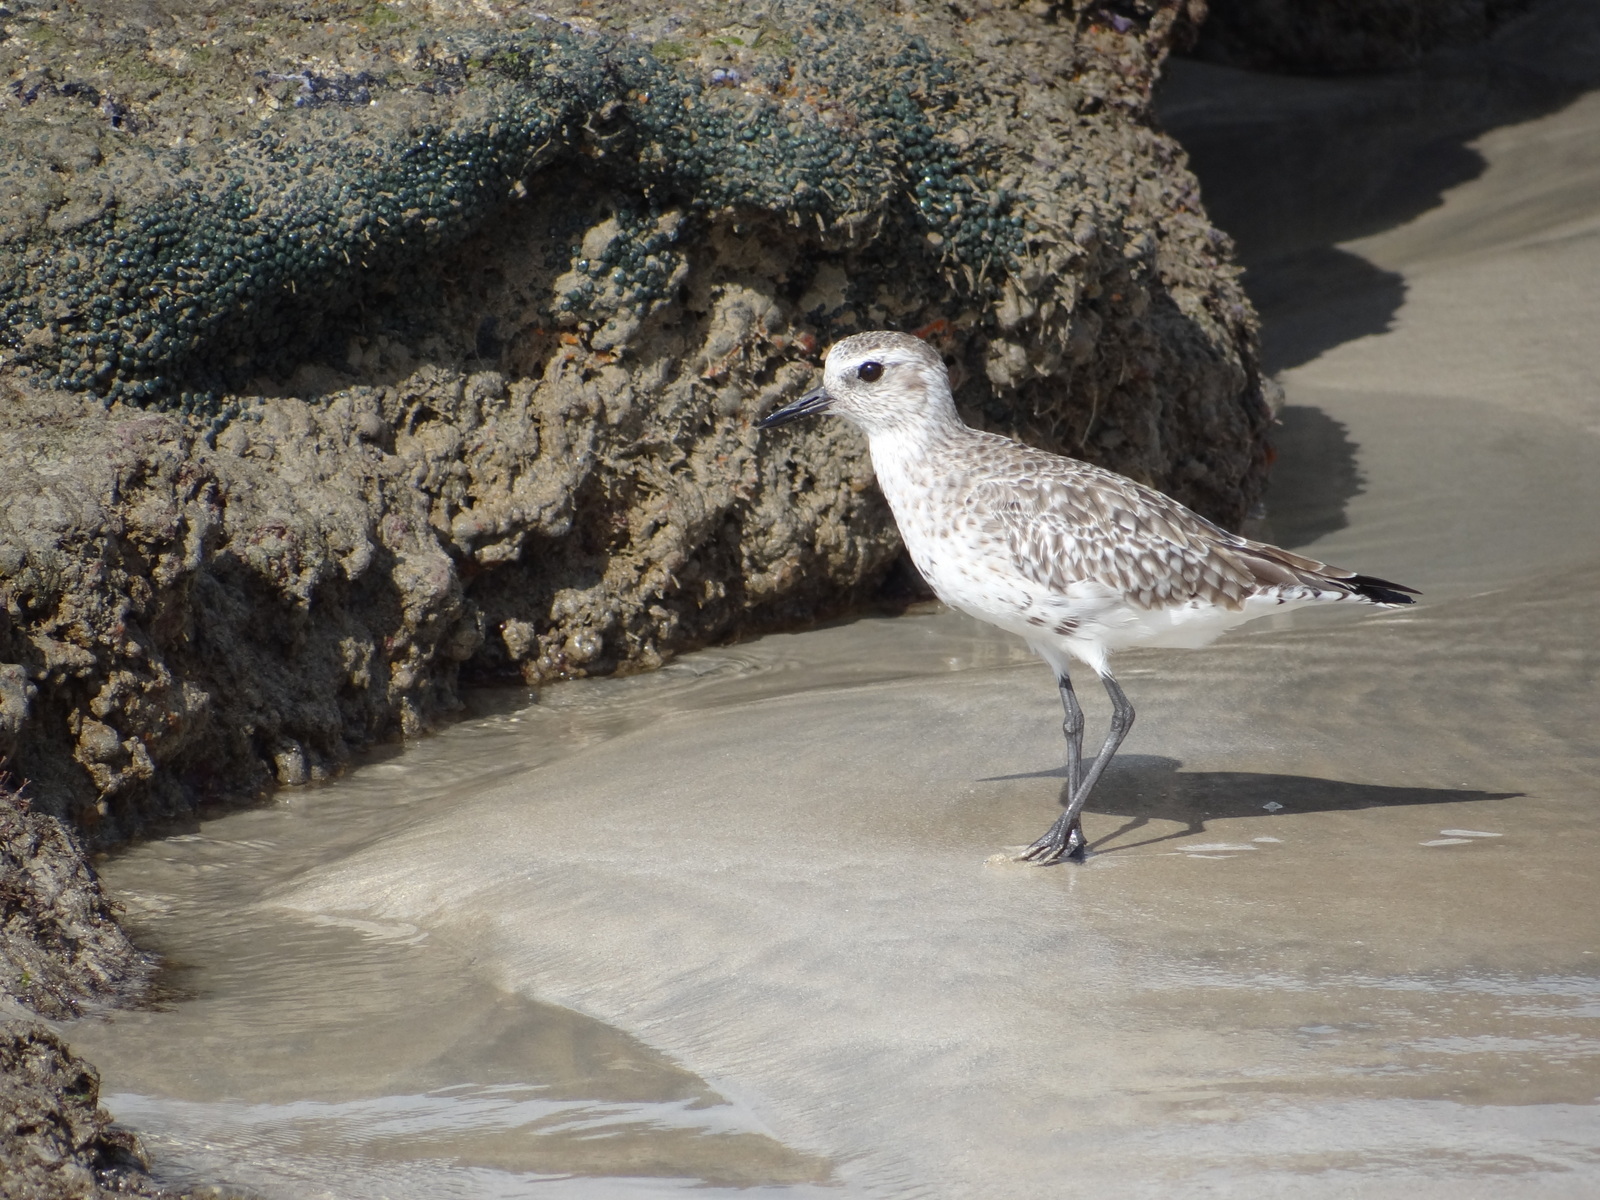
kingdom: Animalia
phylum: Chordata
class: Aves
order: Charadriiformes
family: Charadriidae
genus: Pluvialis
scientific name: Pluvialis squatarola
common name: Grey plover
